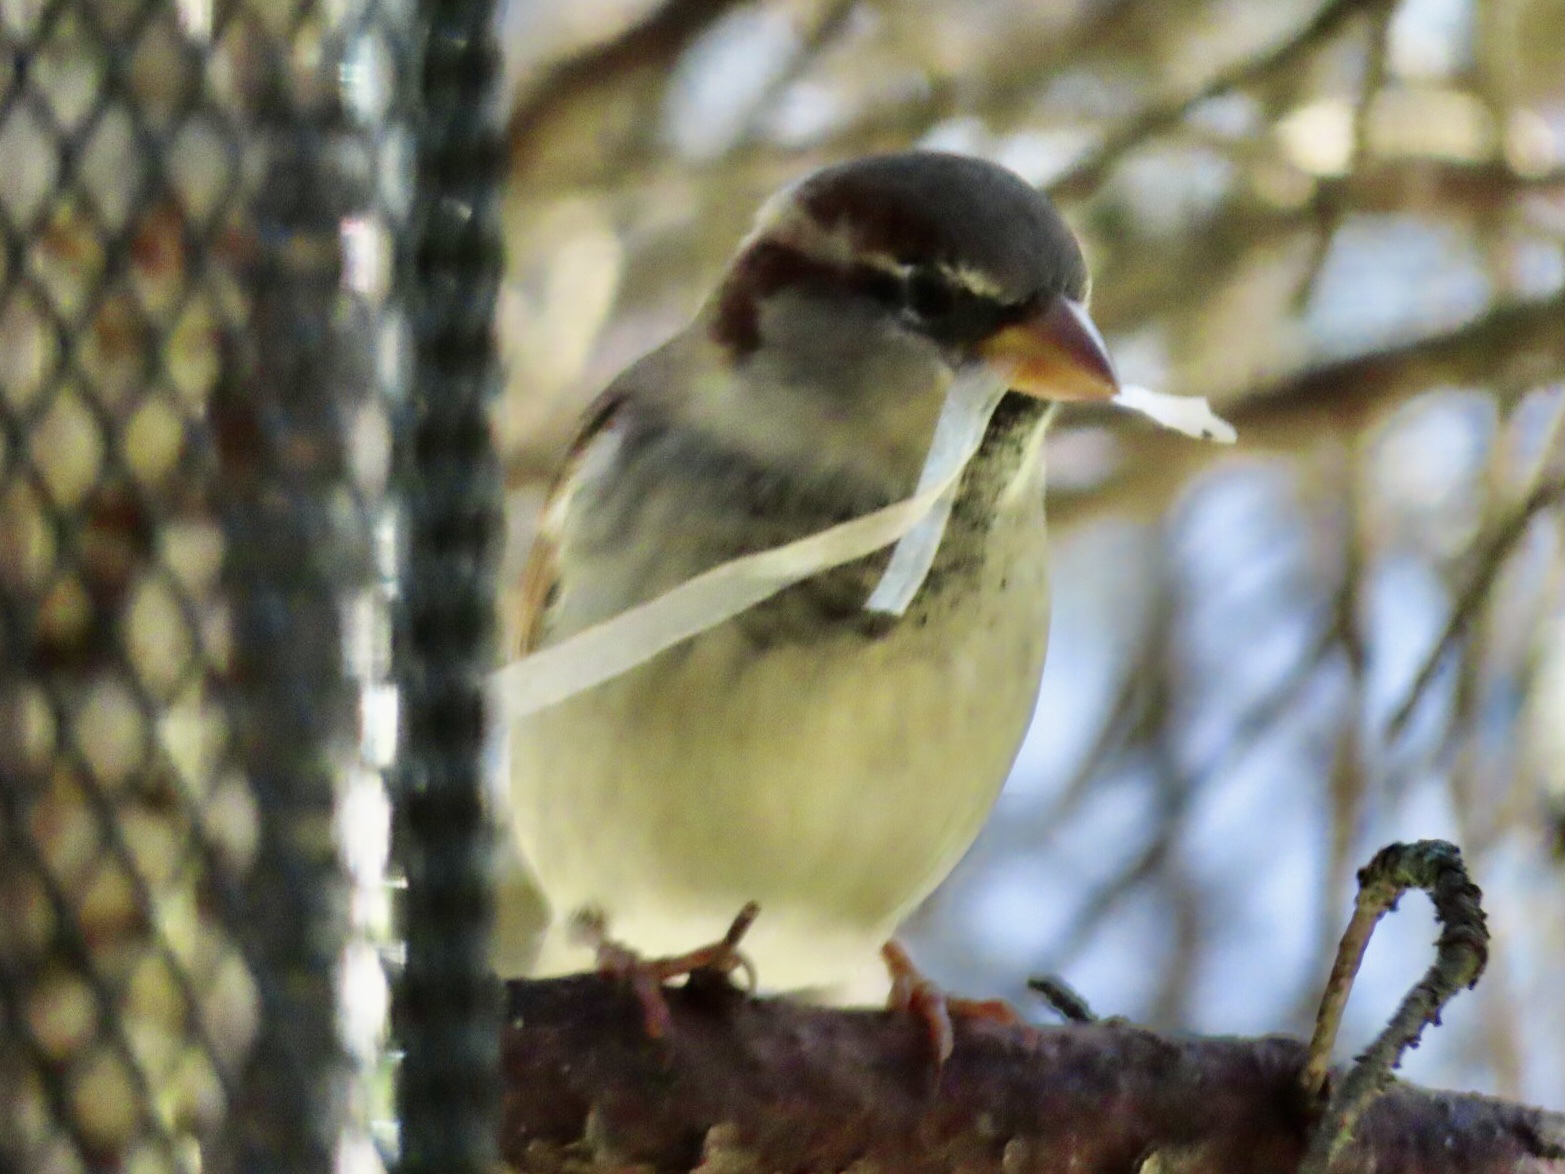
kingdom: Animalia
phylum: Chordata
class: Aves
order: Passeriformes
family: Passeridae
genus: Passer
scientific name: Passer domesticus
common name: House sparrow
